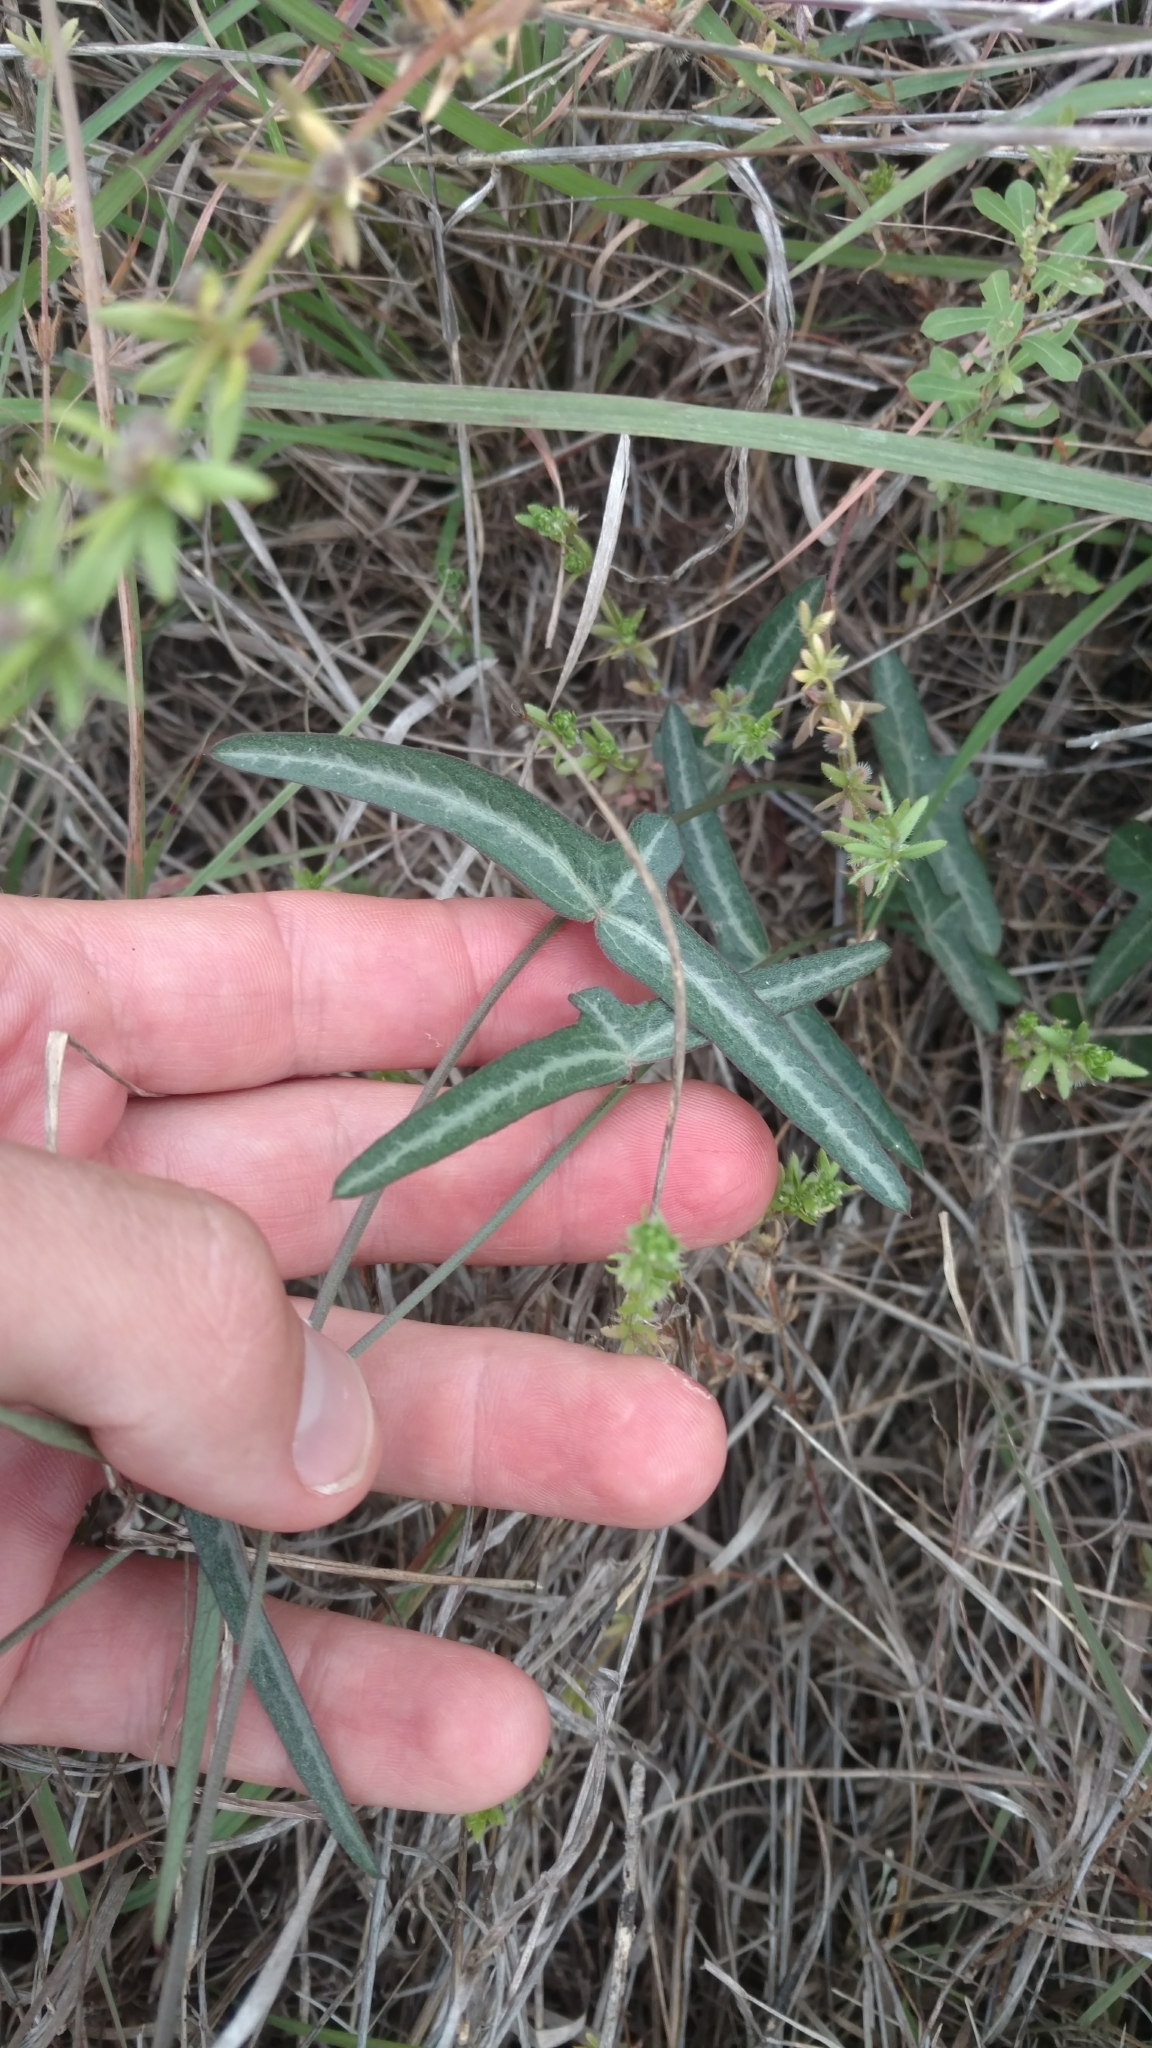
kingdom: Plantae
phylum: Tracheophyta
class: Magnoliopsida
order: Malpighiales
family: Passifloraceae
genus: Passiflora
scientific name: Passiflora tenuiloba
